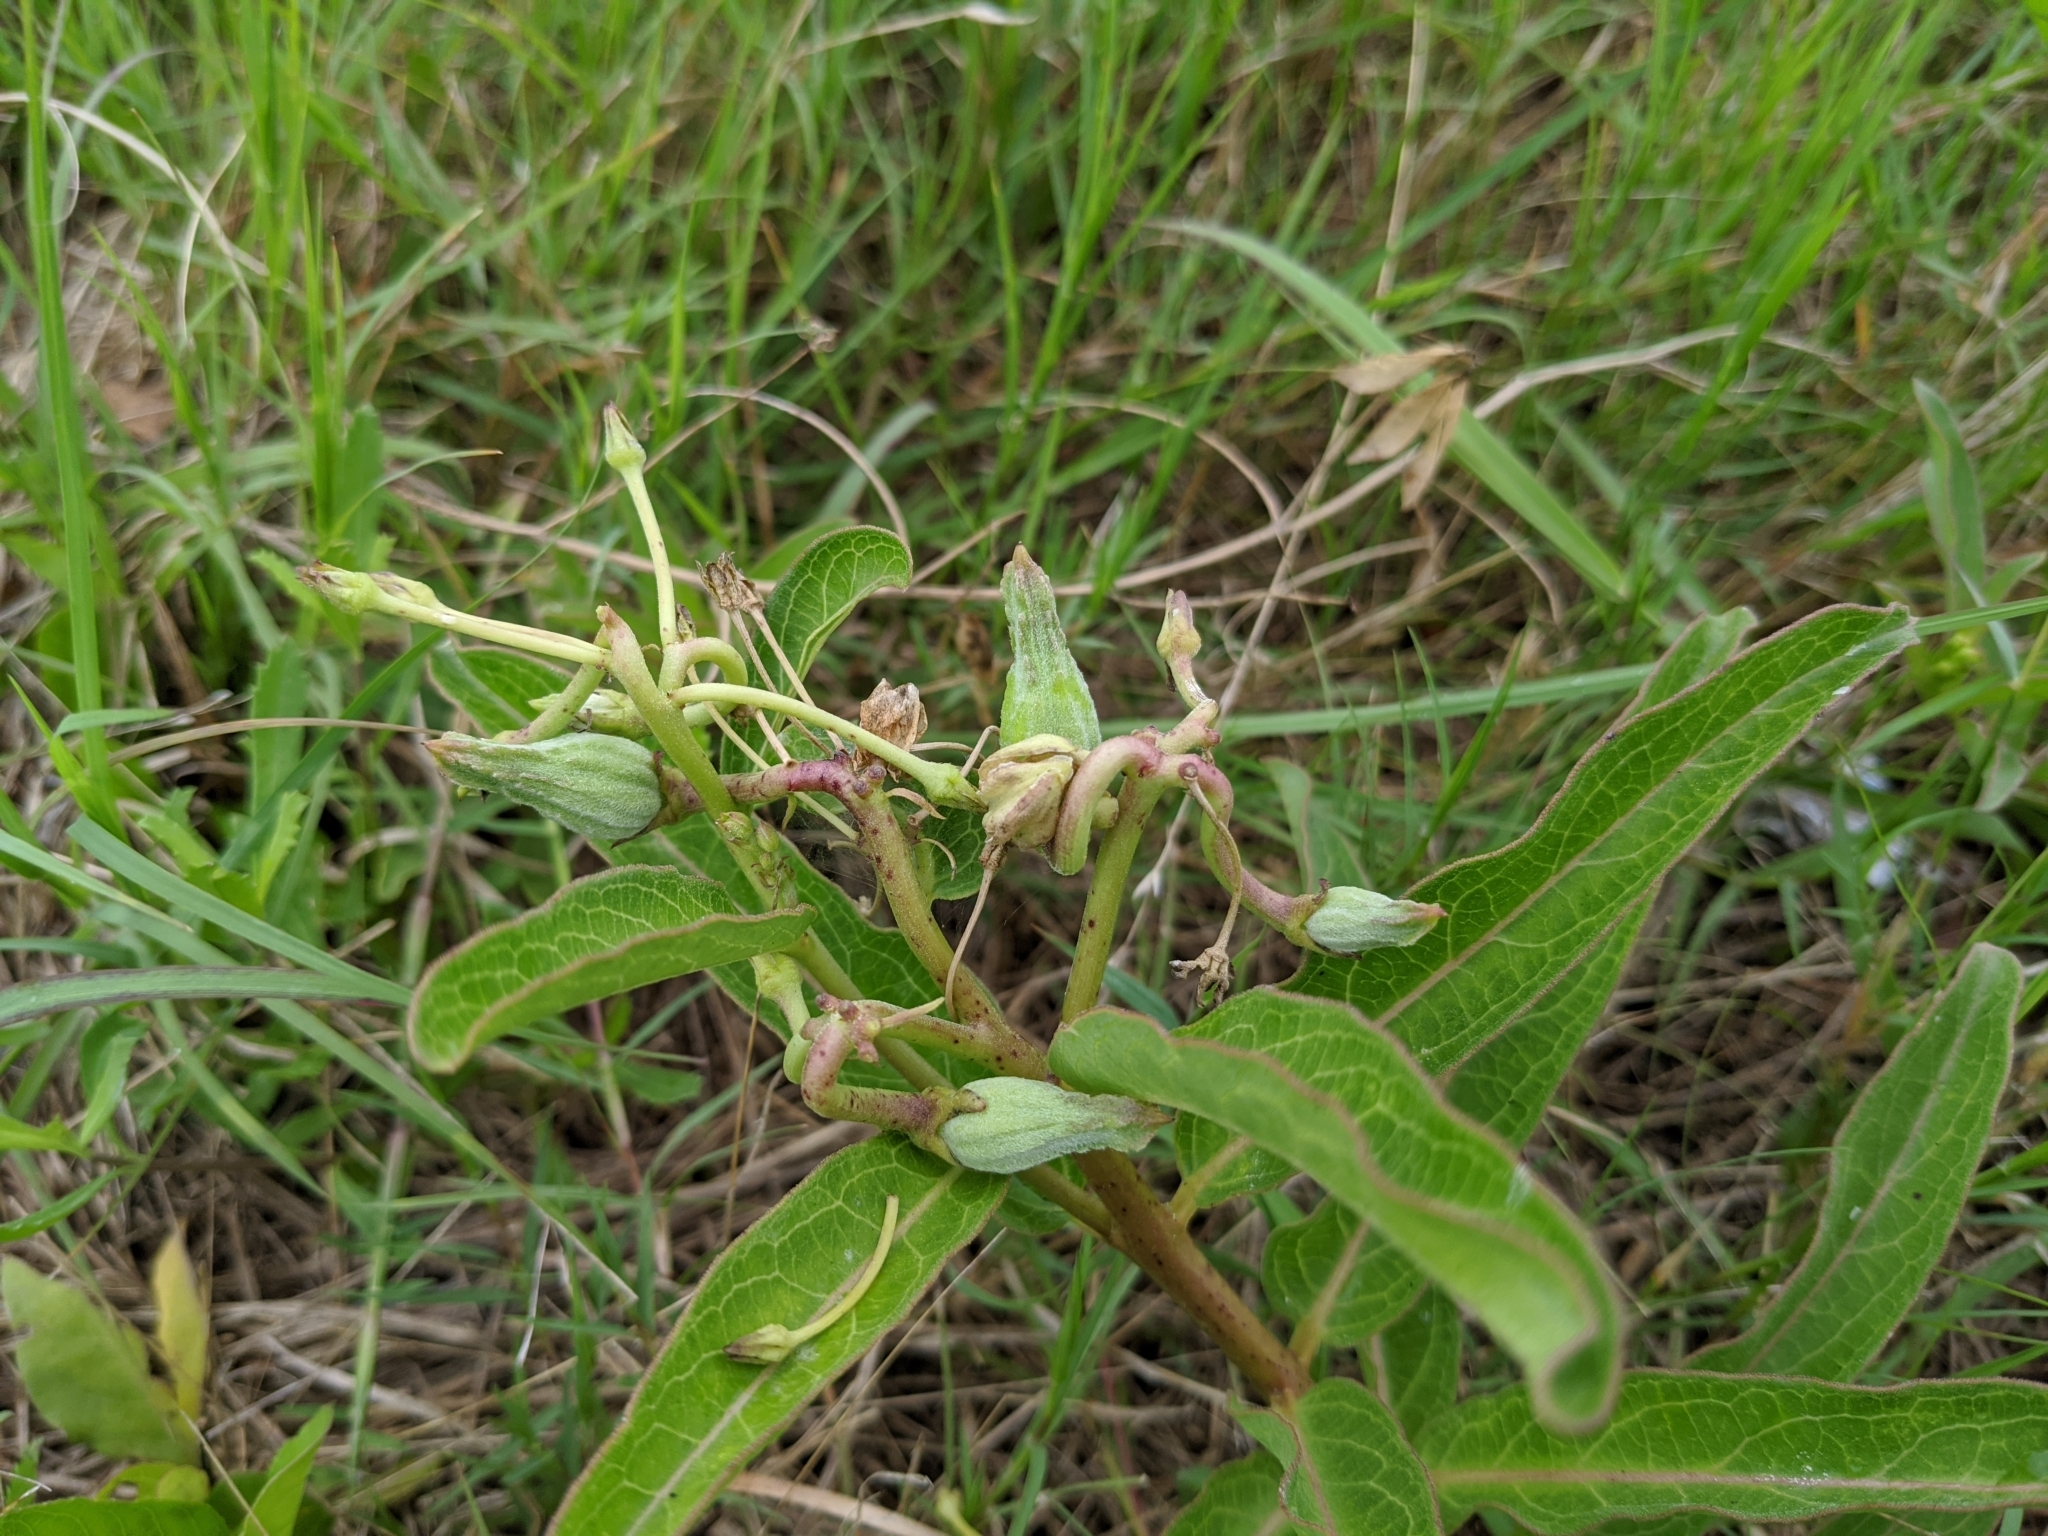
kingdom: Plantae
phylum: Tracheophyta
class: Magnoliopsida
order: Gentianales
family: Apocynaceae
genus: Asclepias
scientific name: Asclepias viridis
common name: Antelope-horns
